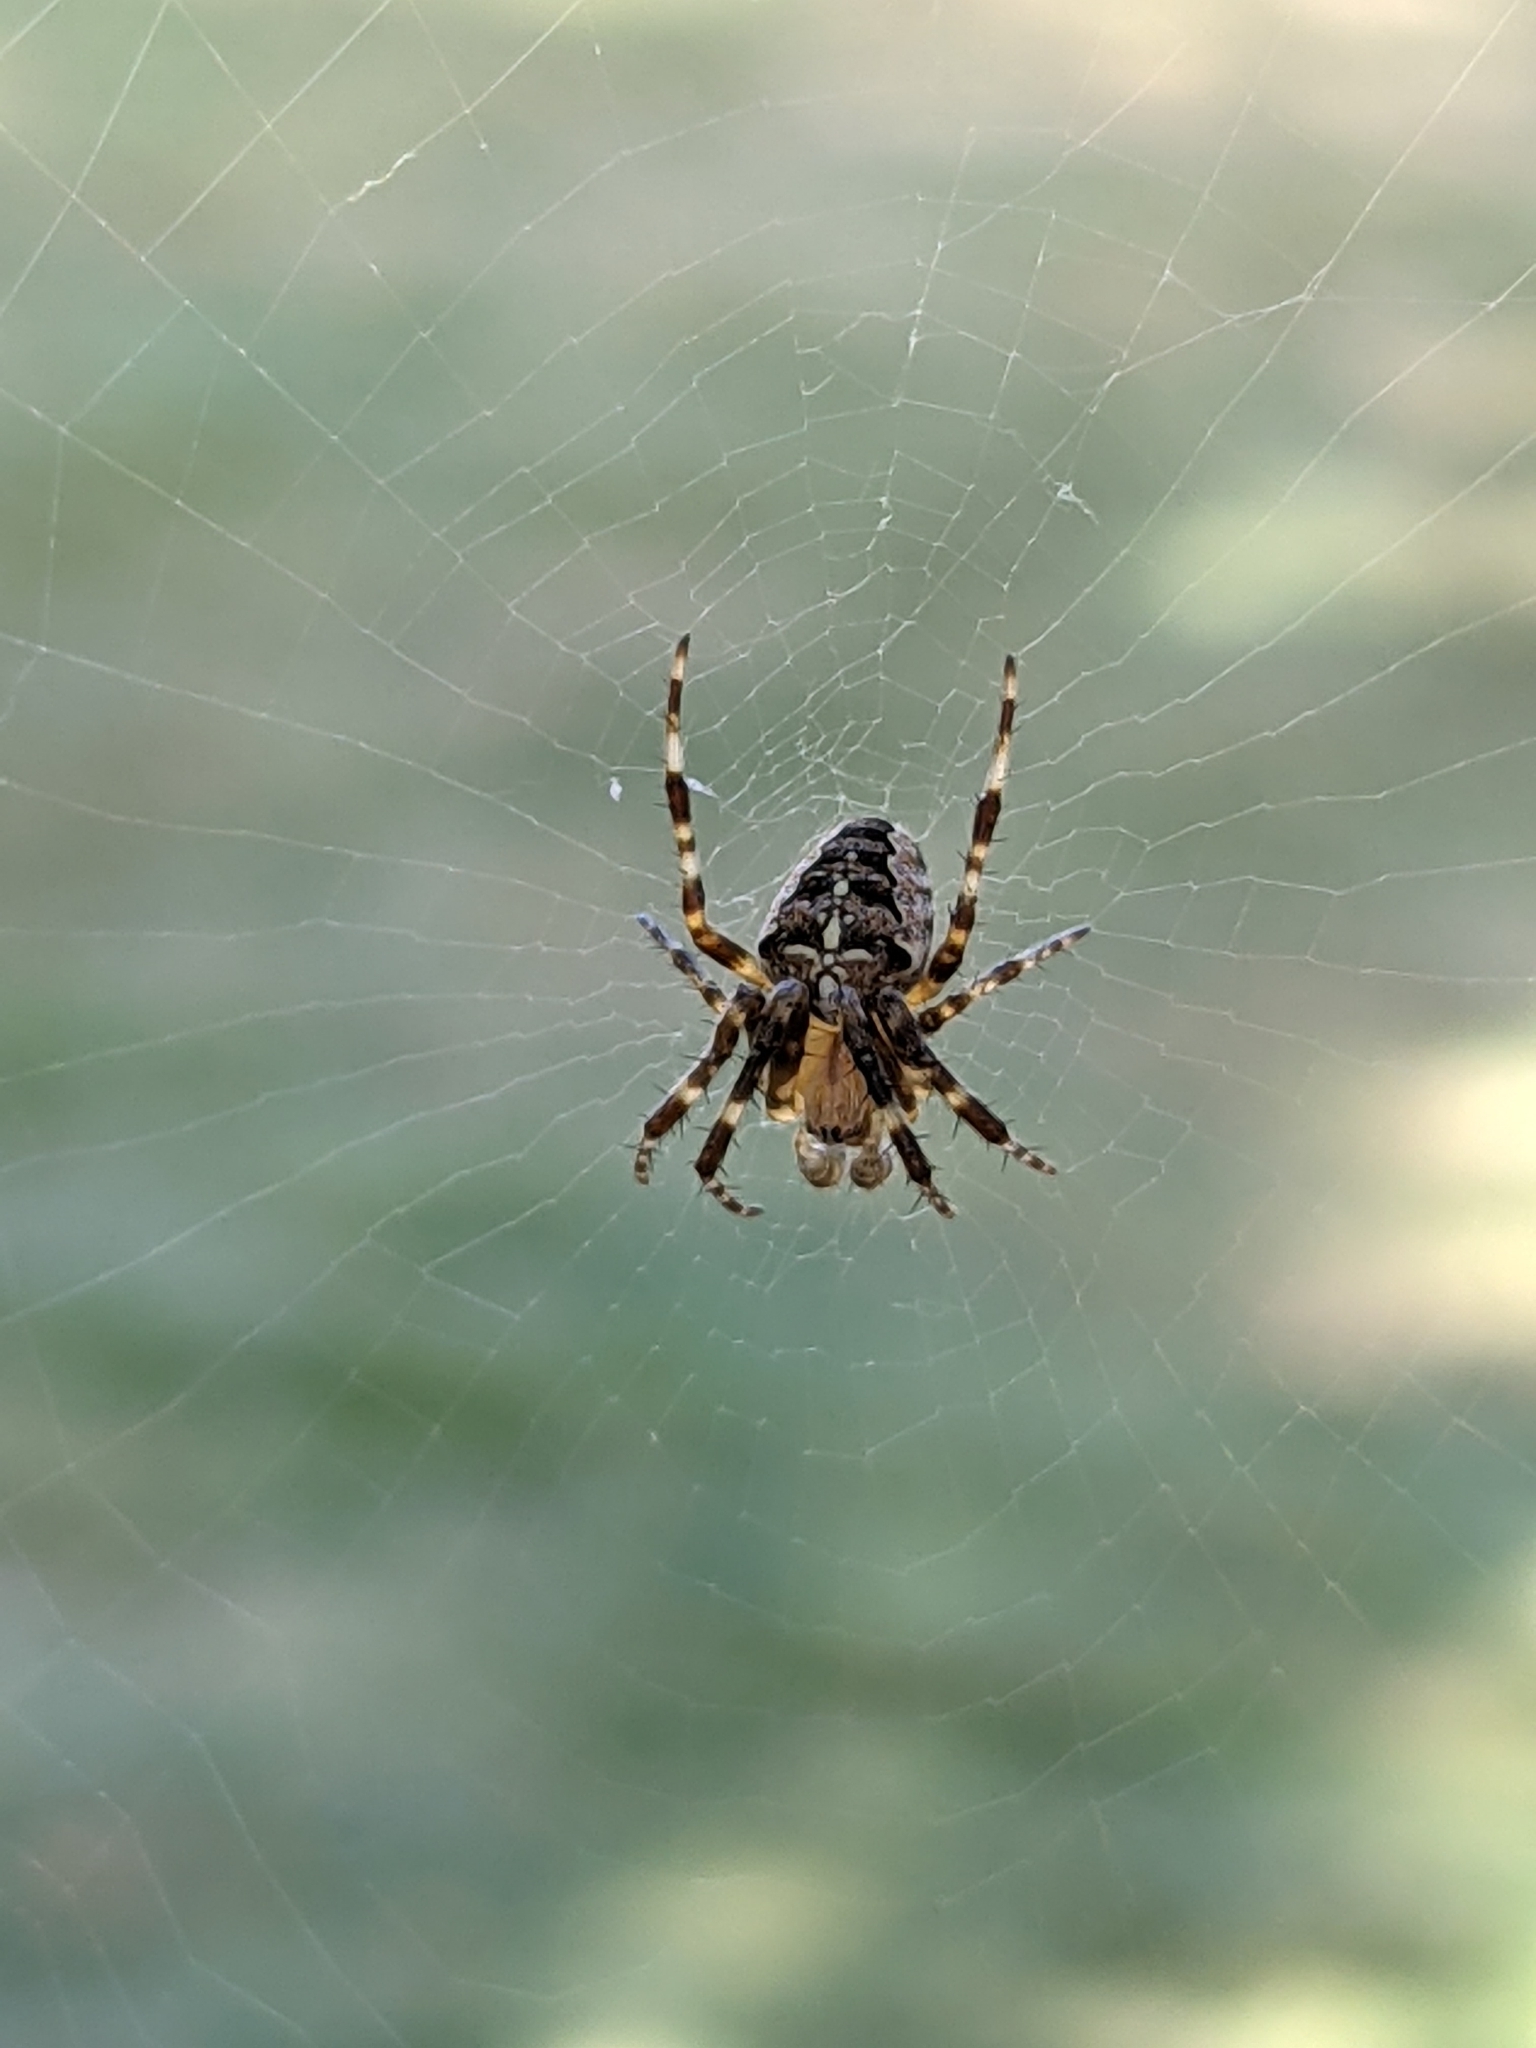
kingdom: Animalia
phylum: Arthropoda
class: Arachnida
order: Araneae
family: Araneidae
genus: Araneus
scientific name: Araneus diadematus
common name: Cross orbweaver
